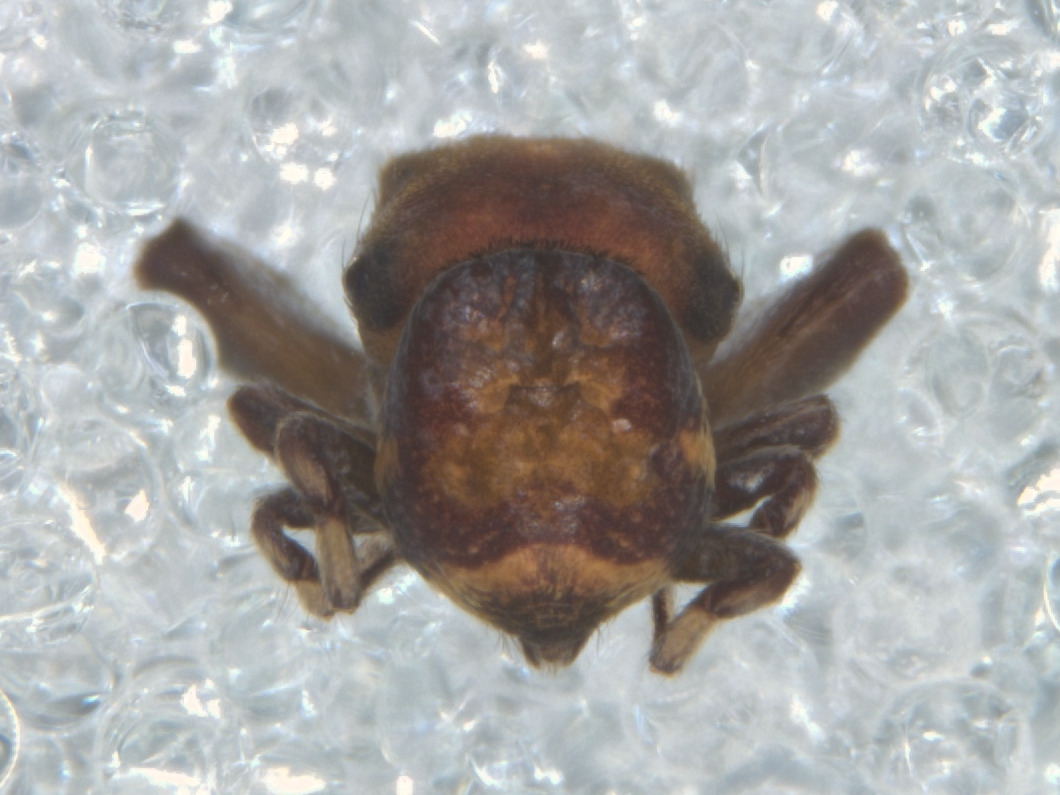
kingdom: Animalia
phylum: Arthropoda
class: Arachnida
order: Araneae
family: Salticidae
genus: Rhetenor
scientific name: Rhetenor texanus
